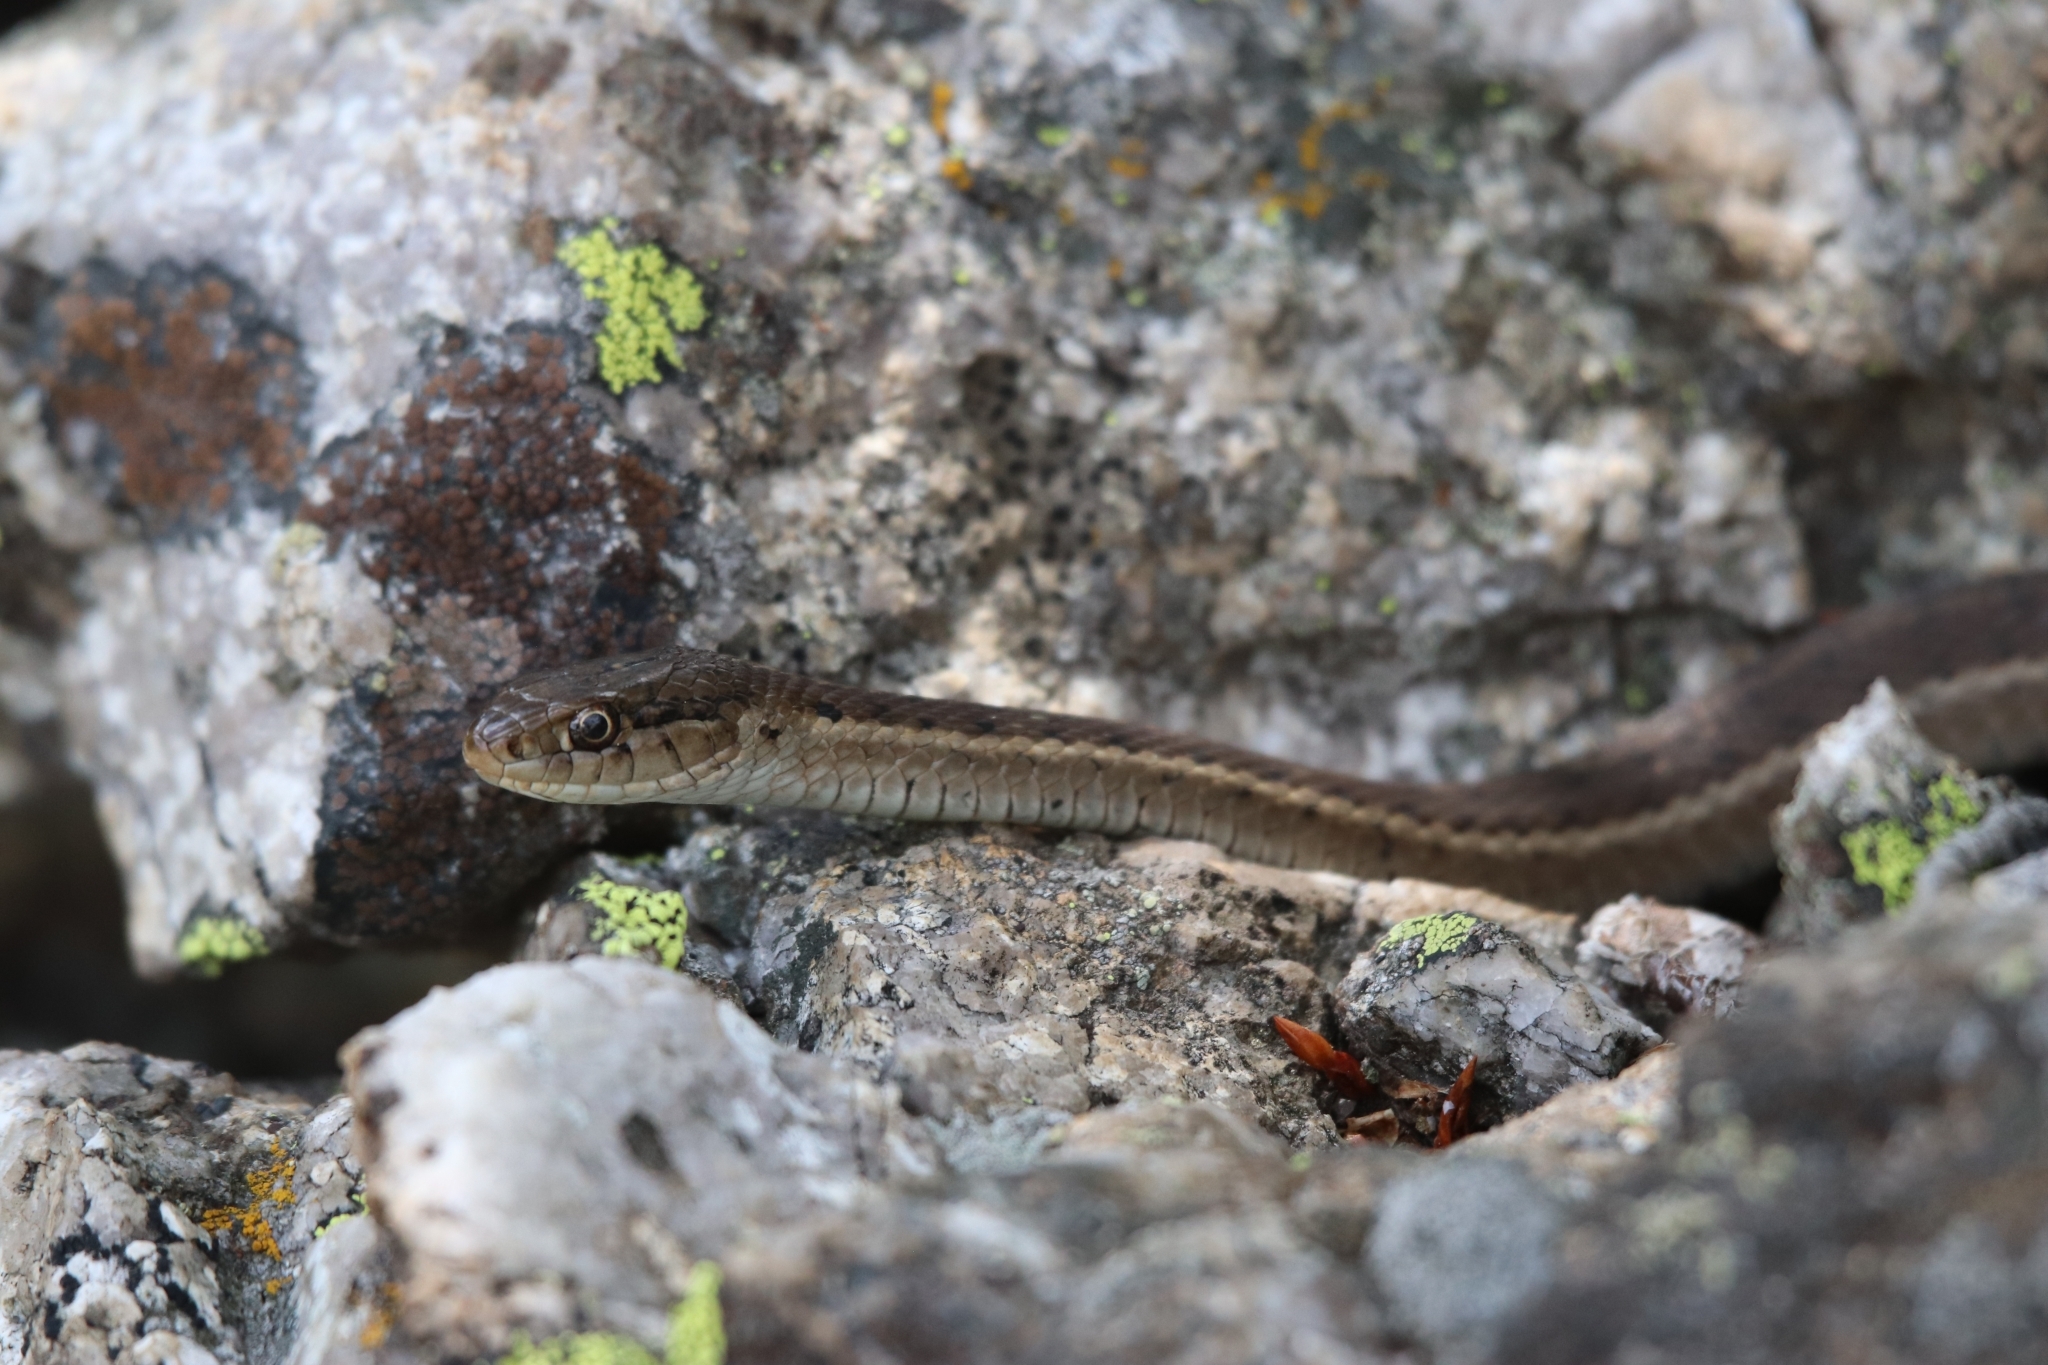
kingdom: Animalia
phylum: Chordata
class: Squamata
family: Colubridae
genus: Thamnophis
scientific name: Thamnophis elegans
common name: Western terrestrial garter snake
